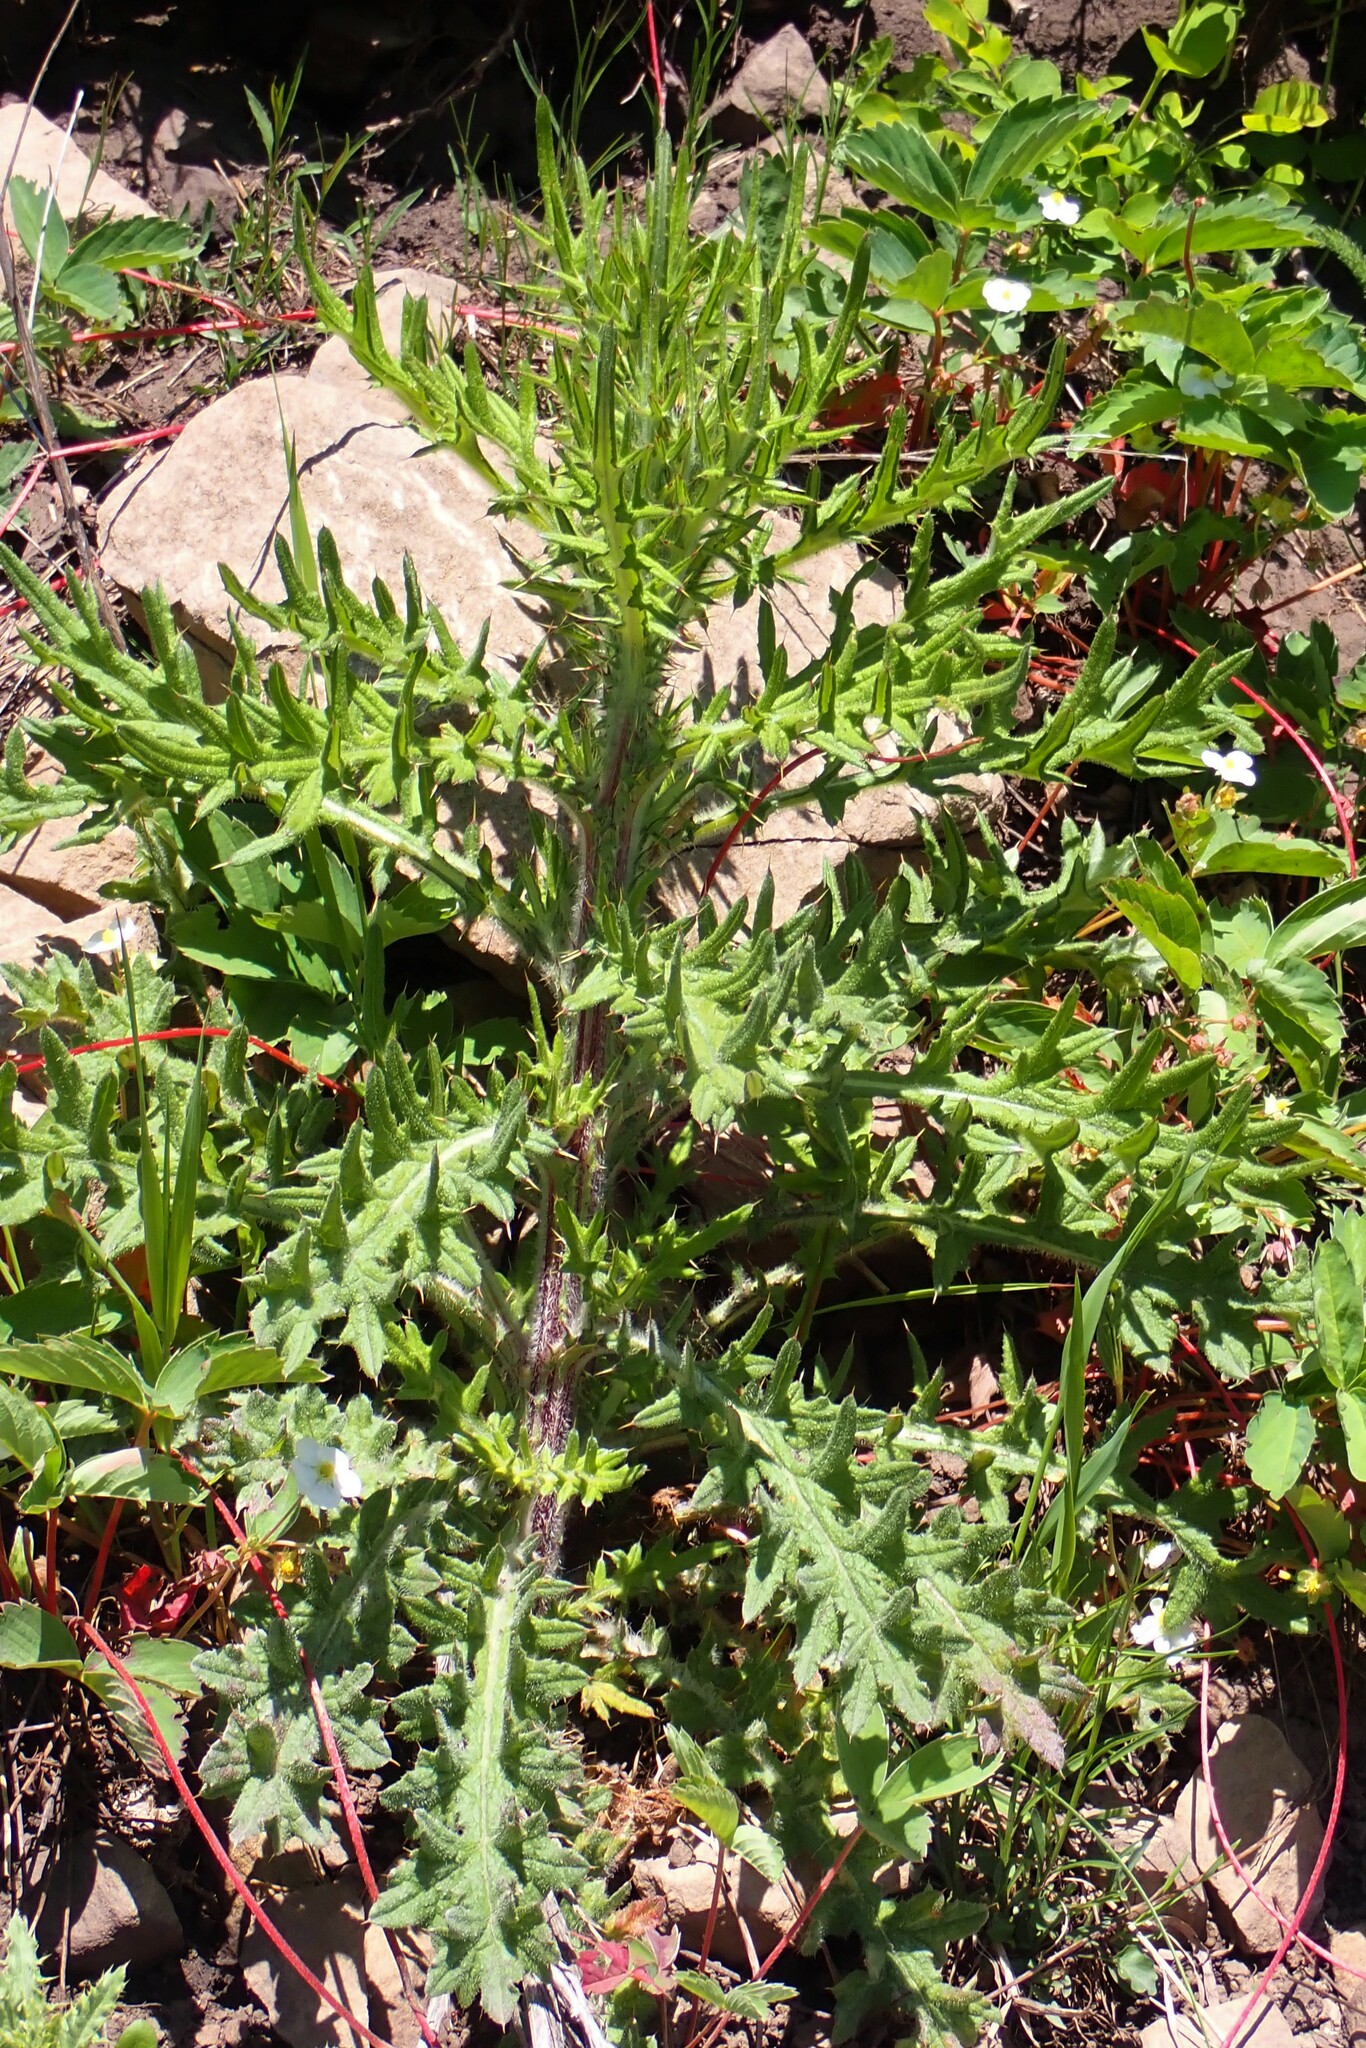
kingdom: Plantae
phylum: Tracheophyta
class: Magnoliopsida
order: Asterales
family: Asteraceae
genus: Cirsium
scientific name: Cirsium vulgare
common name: Bull thistle
